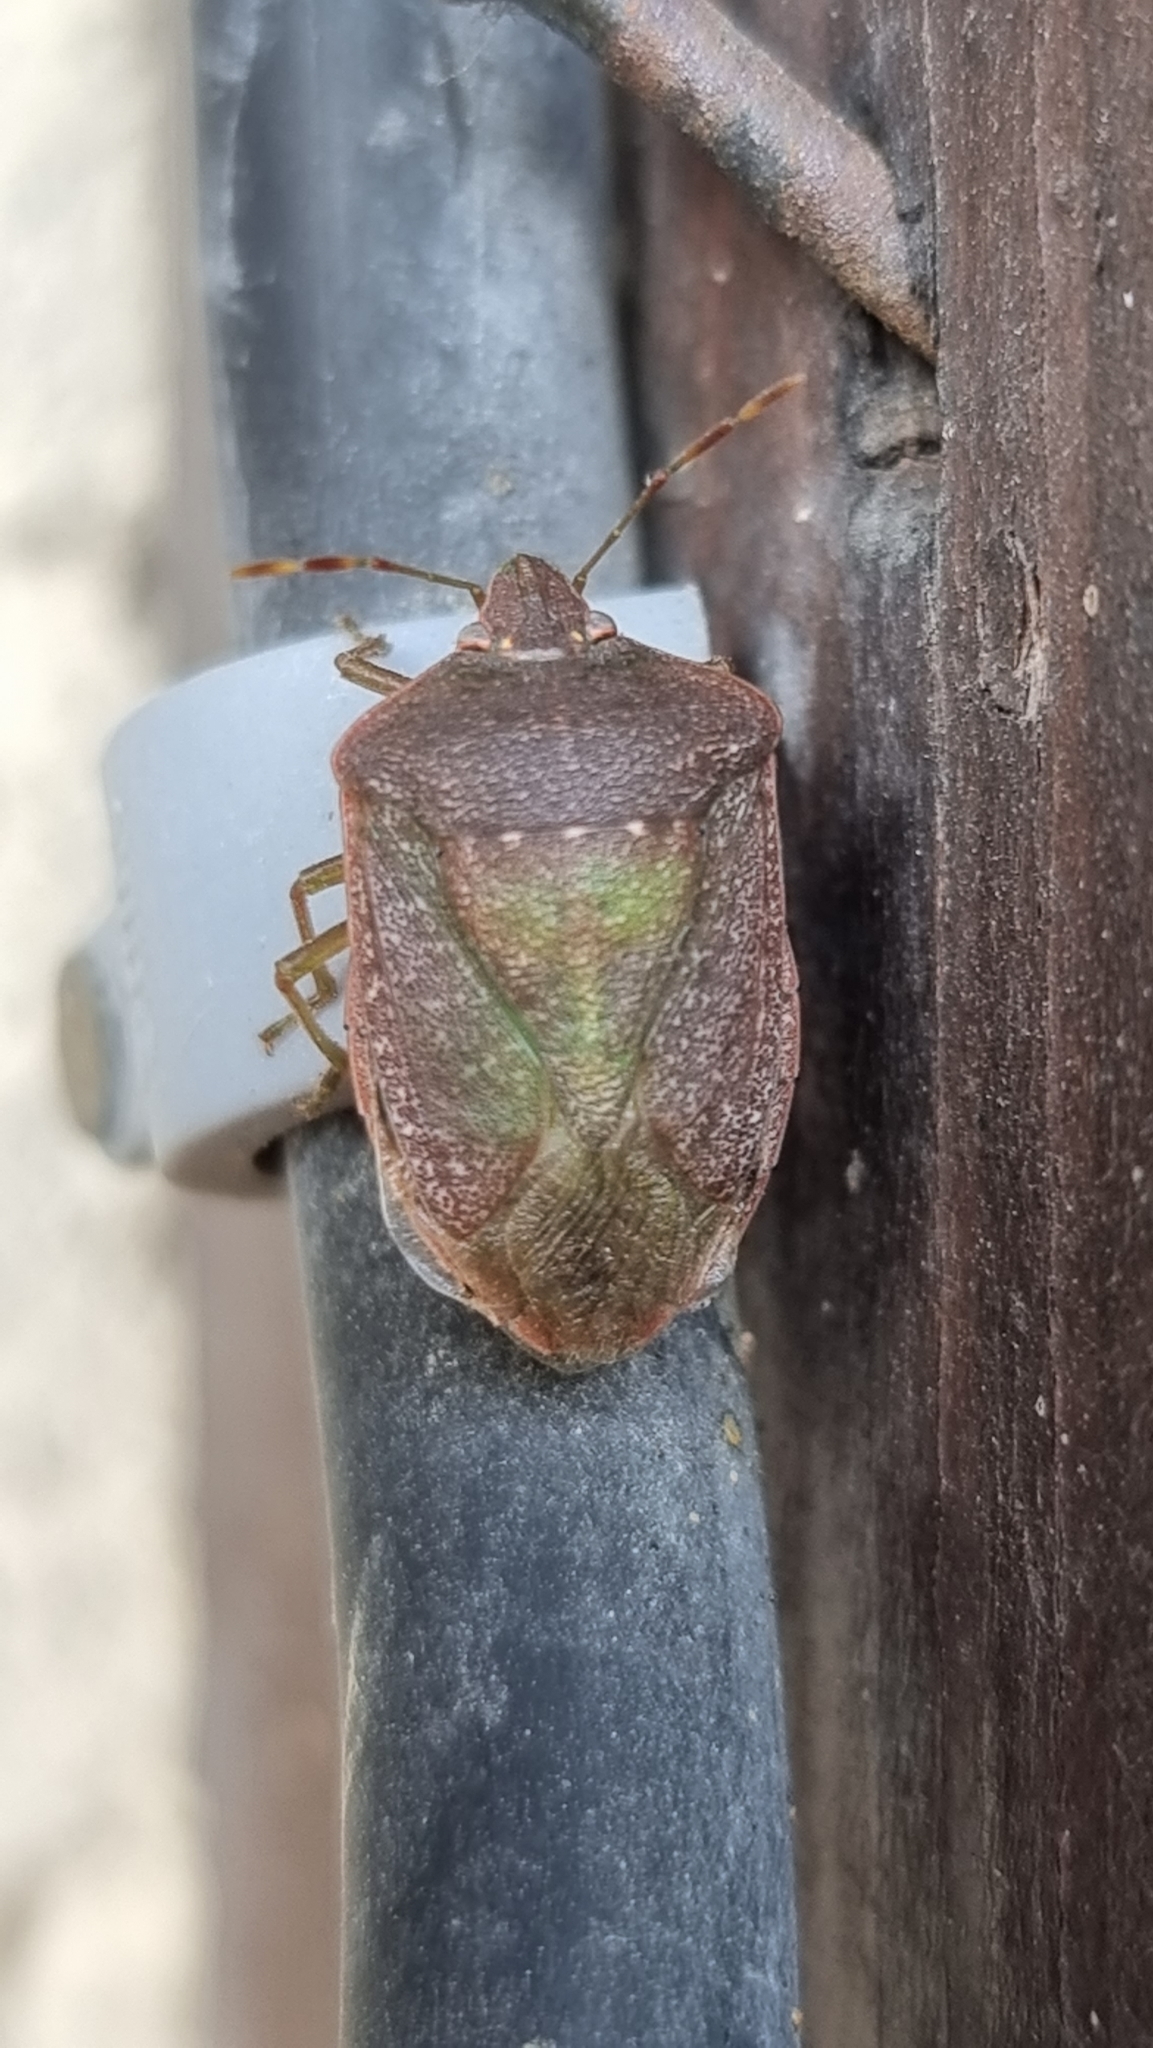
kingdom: Animalia
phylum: Arthropoda
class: Insecta
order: Hemiptera
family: Pentatomidae
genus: Nezara
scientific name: Nezara viridula
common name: Southern green stink bug
